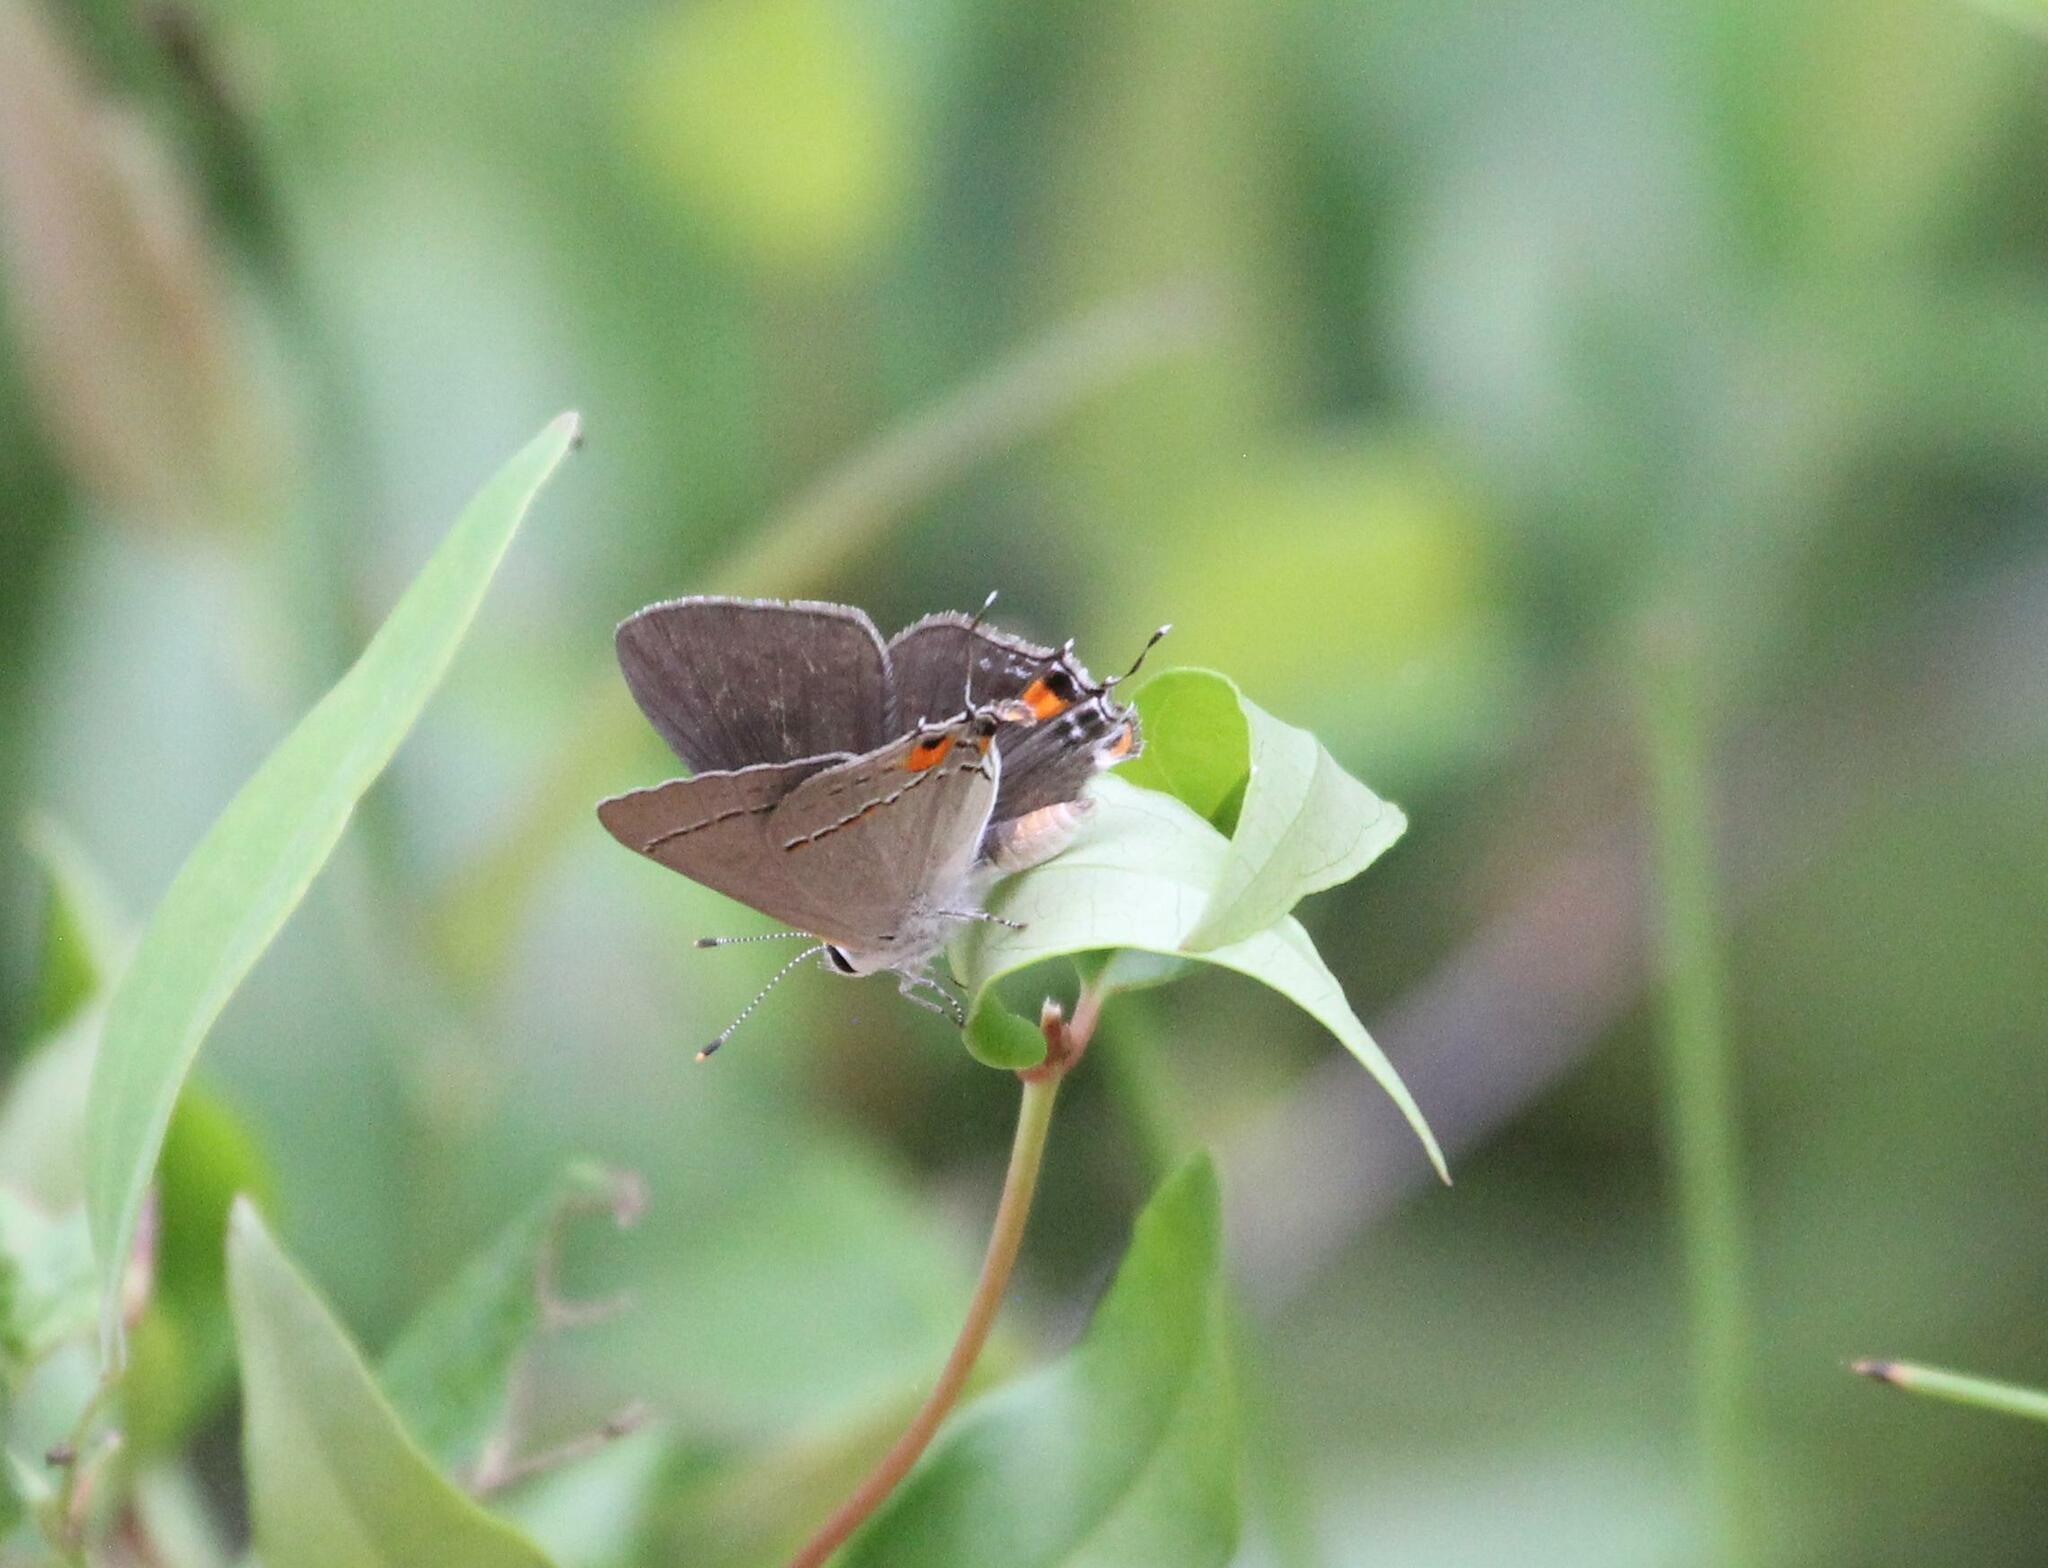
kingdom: Animalia
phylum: Arthropoda
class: Insecta
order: Lepidoptera
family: Lycaenidae
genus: Strymon
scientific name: Strymon melinus
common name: Gray hairstreak
